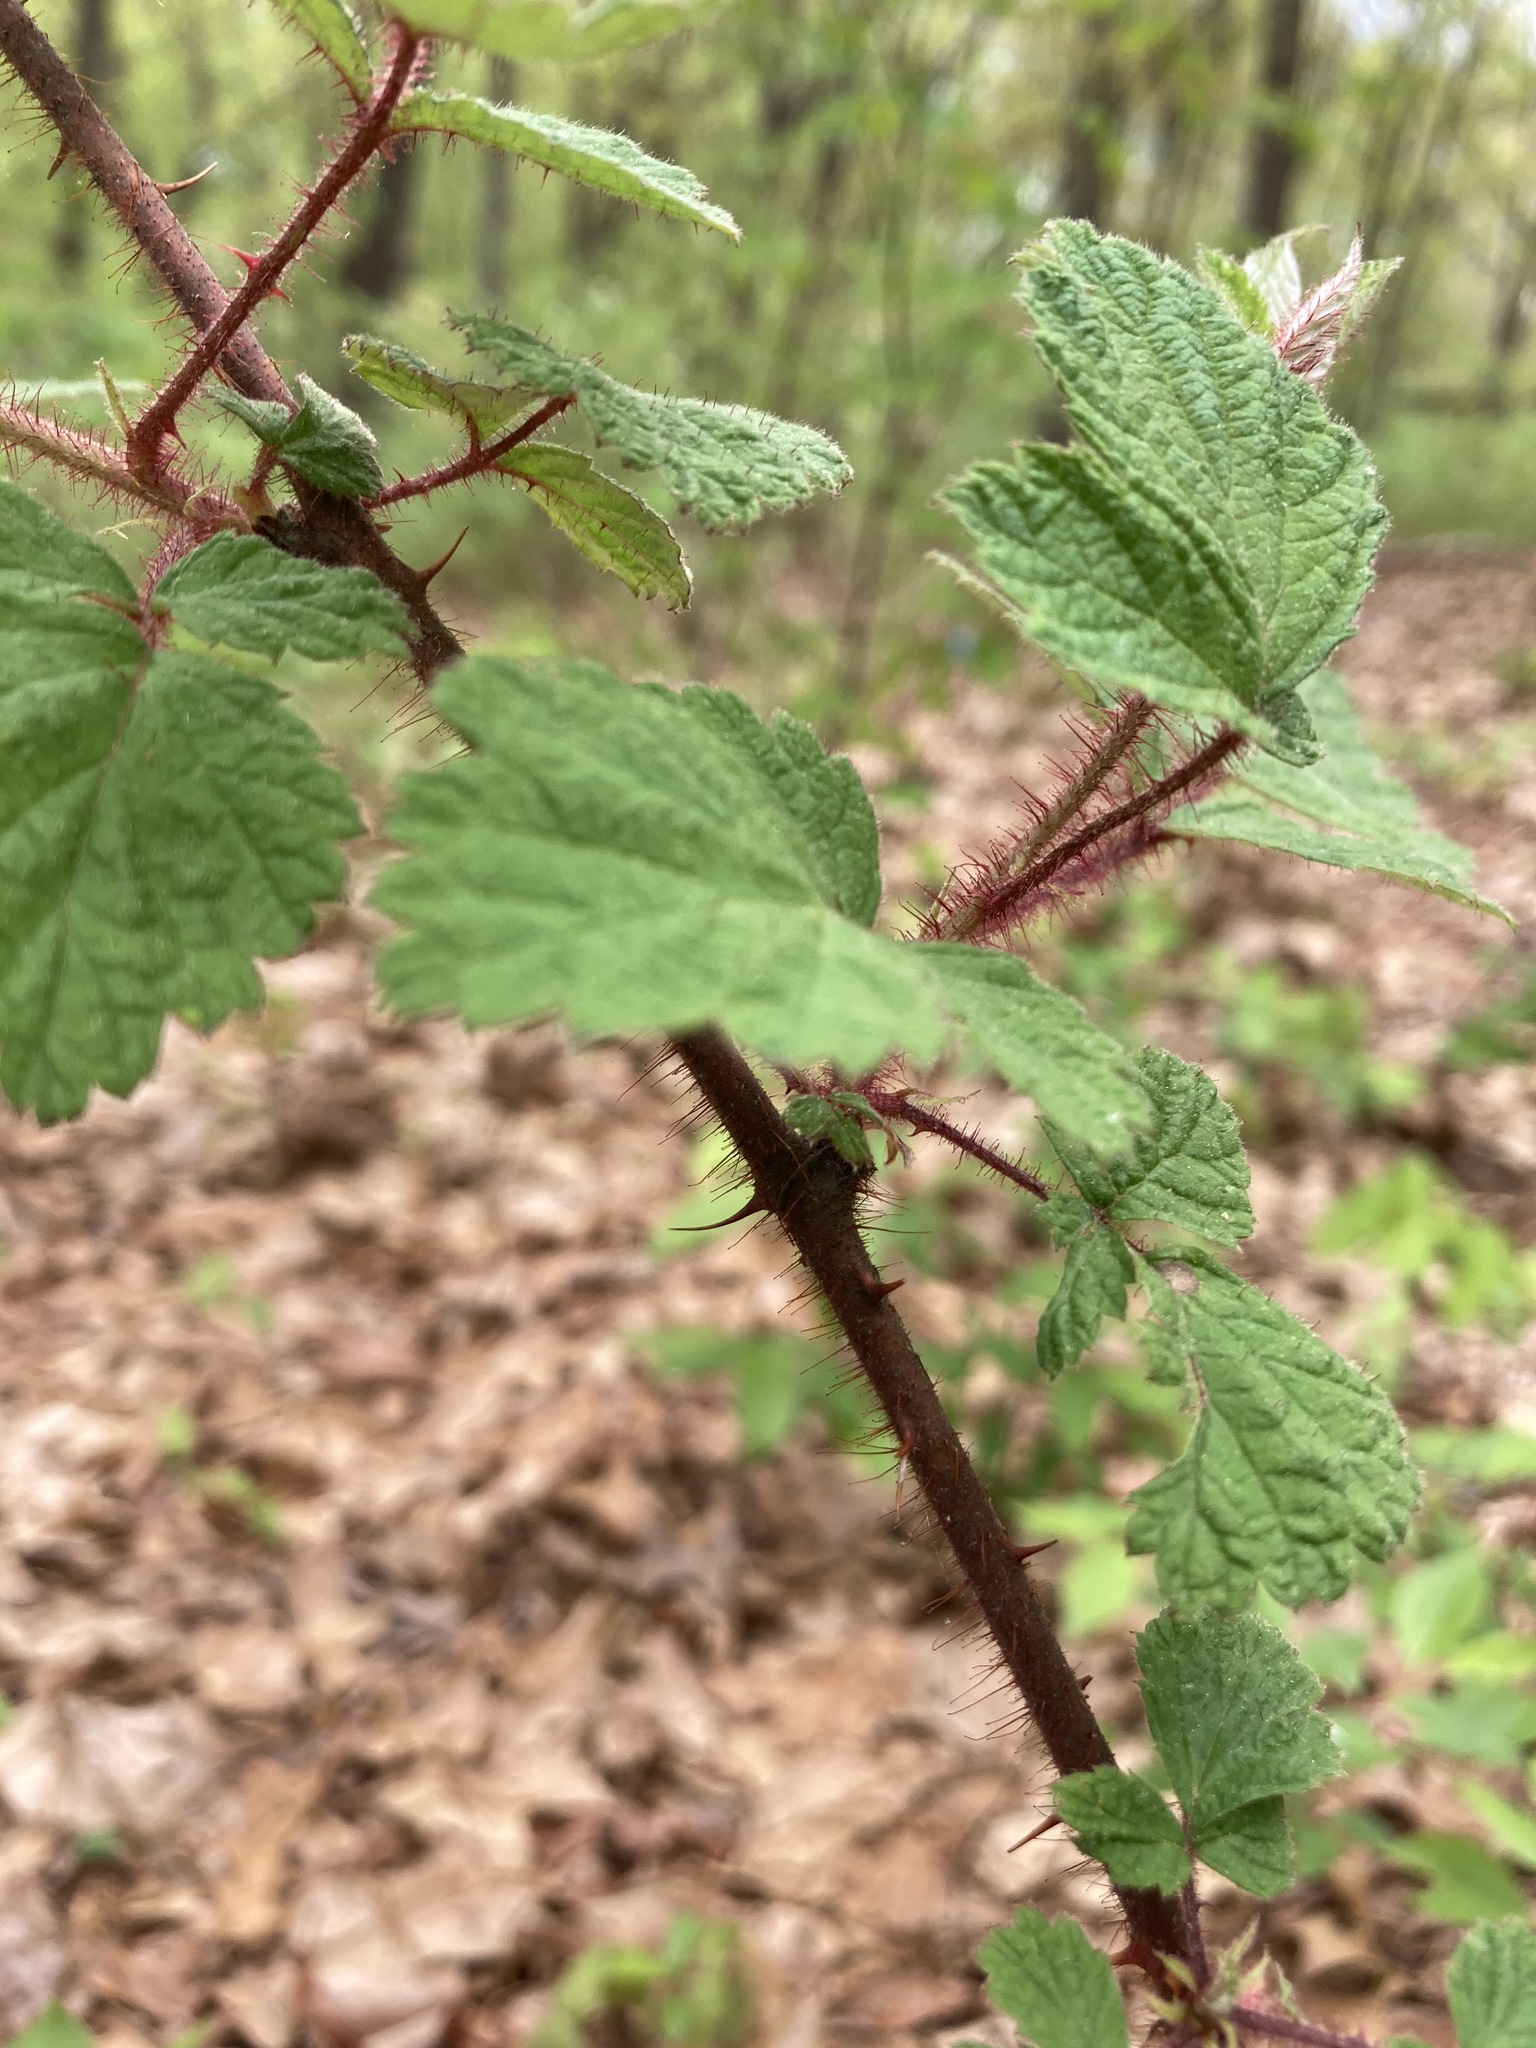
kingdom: Plantae
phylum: Tracheophyta
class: Magnoliopsida
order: Rosales
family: Rosaceae
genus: Rubus
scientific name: Rubus phoenicolasius
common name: Japanese wineberry
